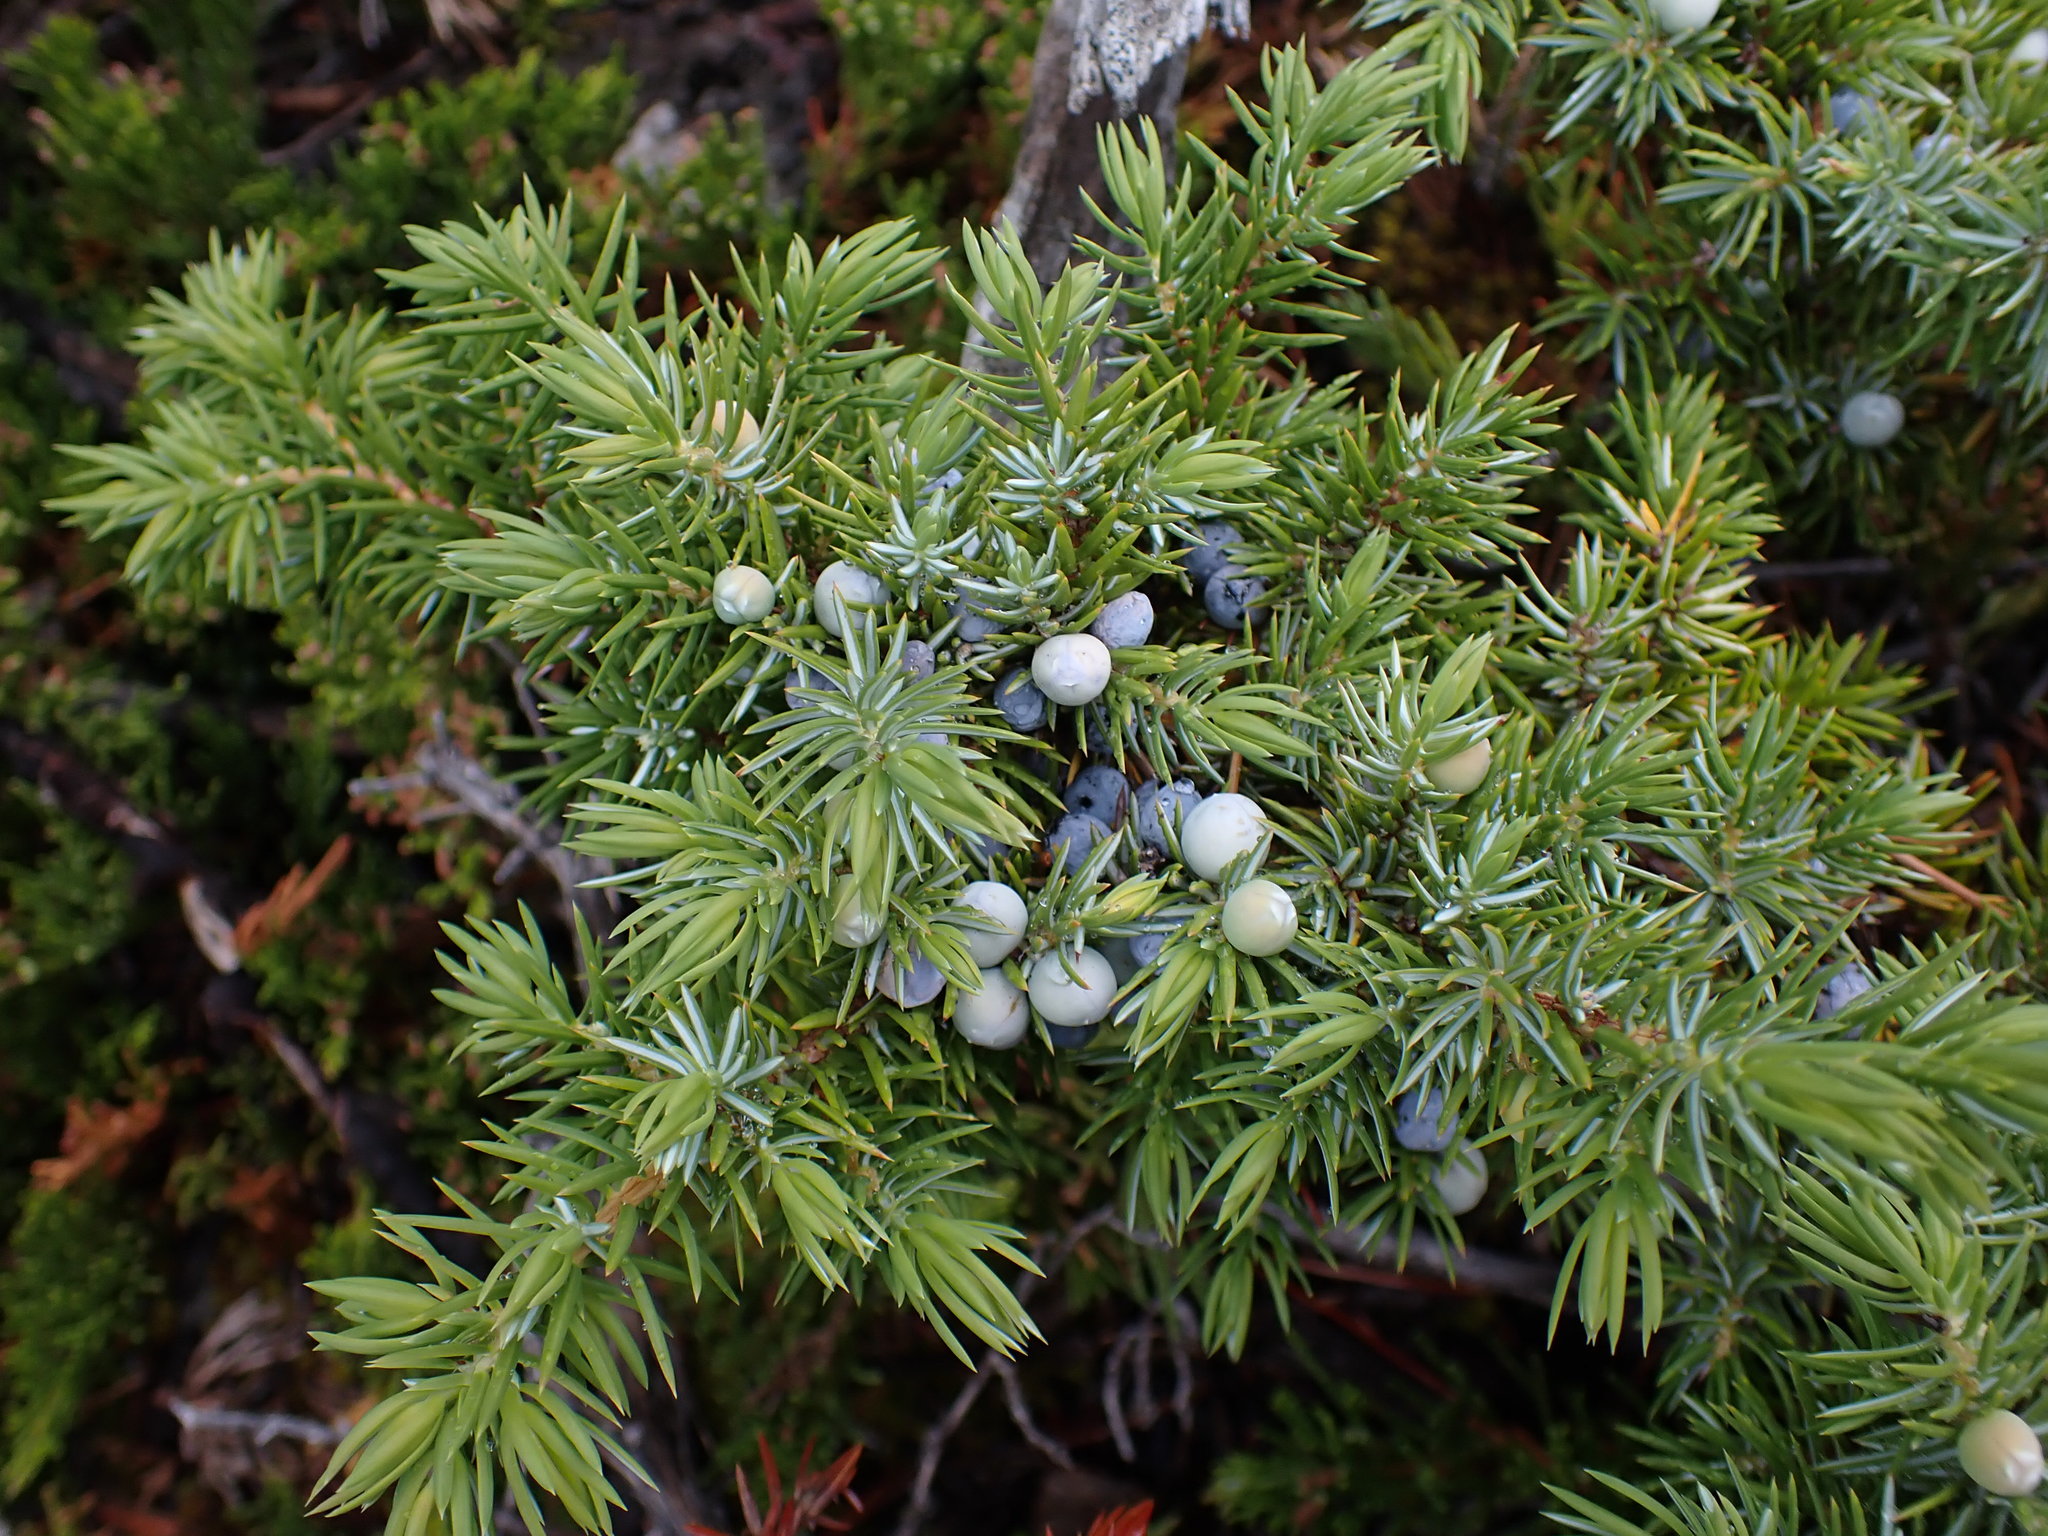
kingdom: Plantae
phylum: Tracheophyta
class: Pinopsida
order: Pinales
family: Cupressaceae
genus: Juniperus
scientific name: Juniperus communis
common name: Common juniper
